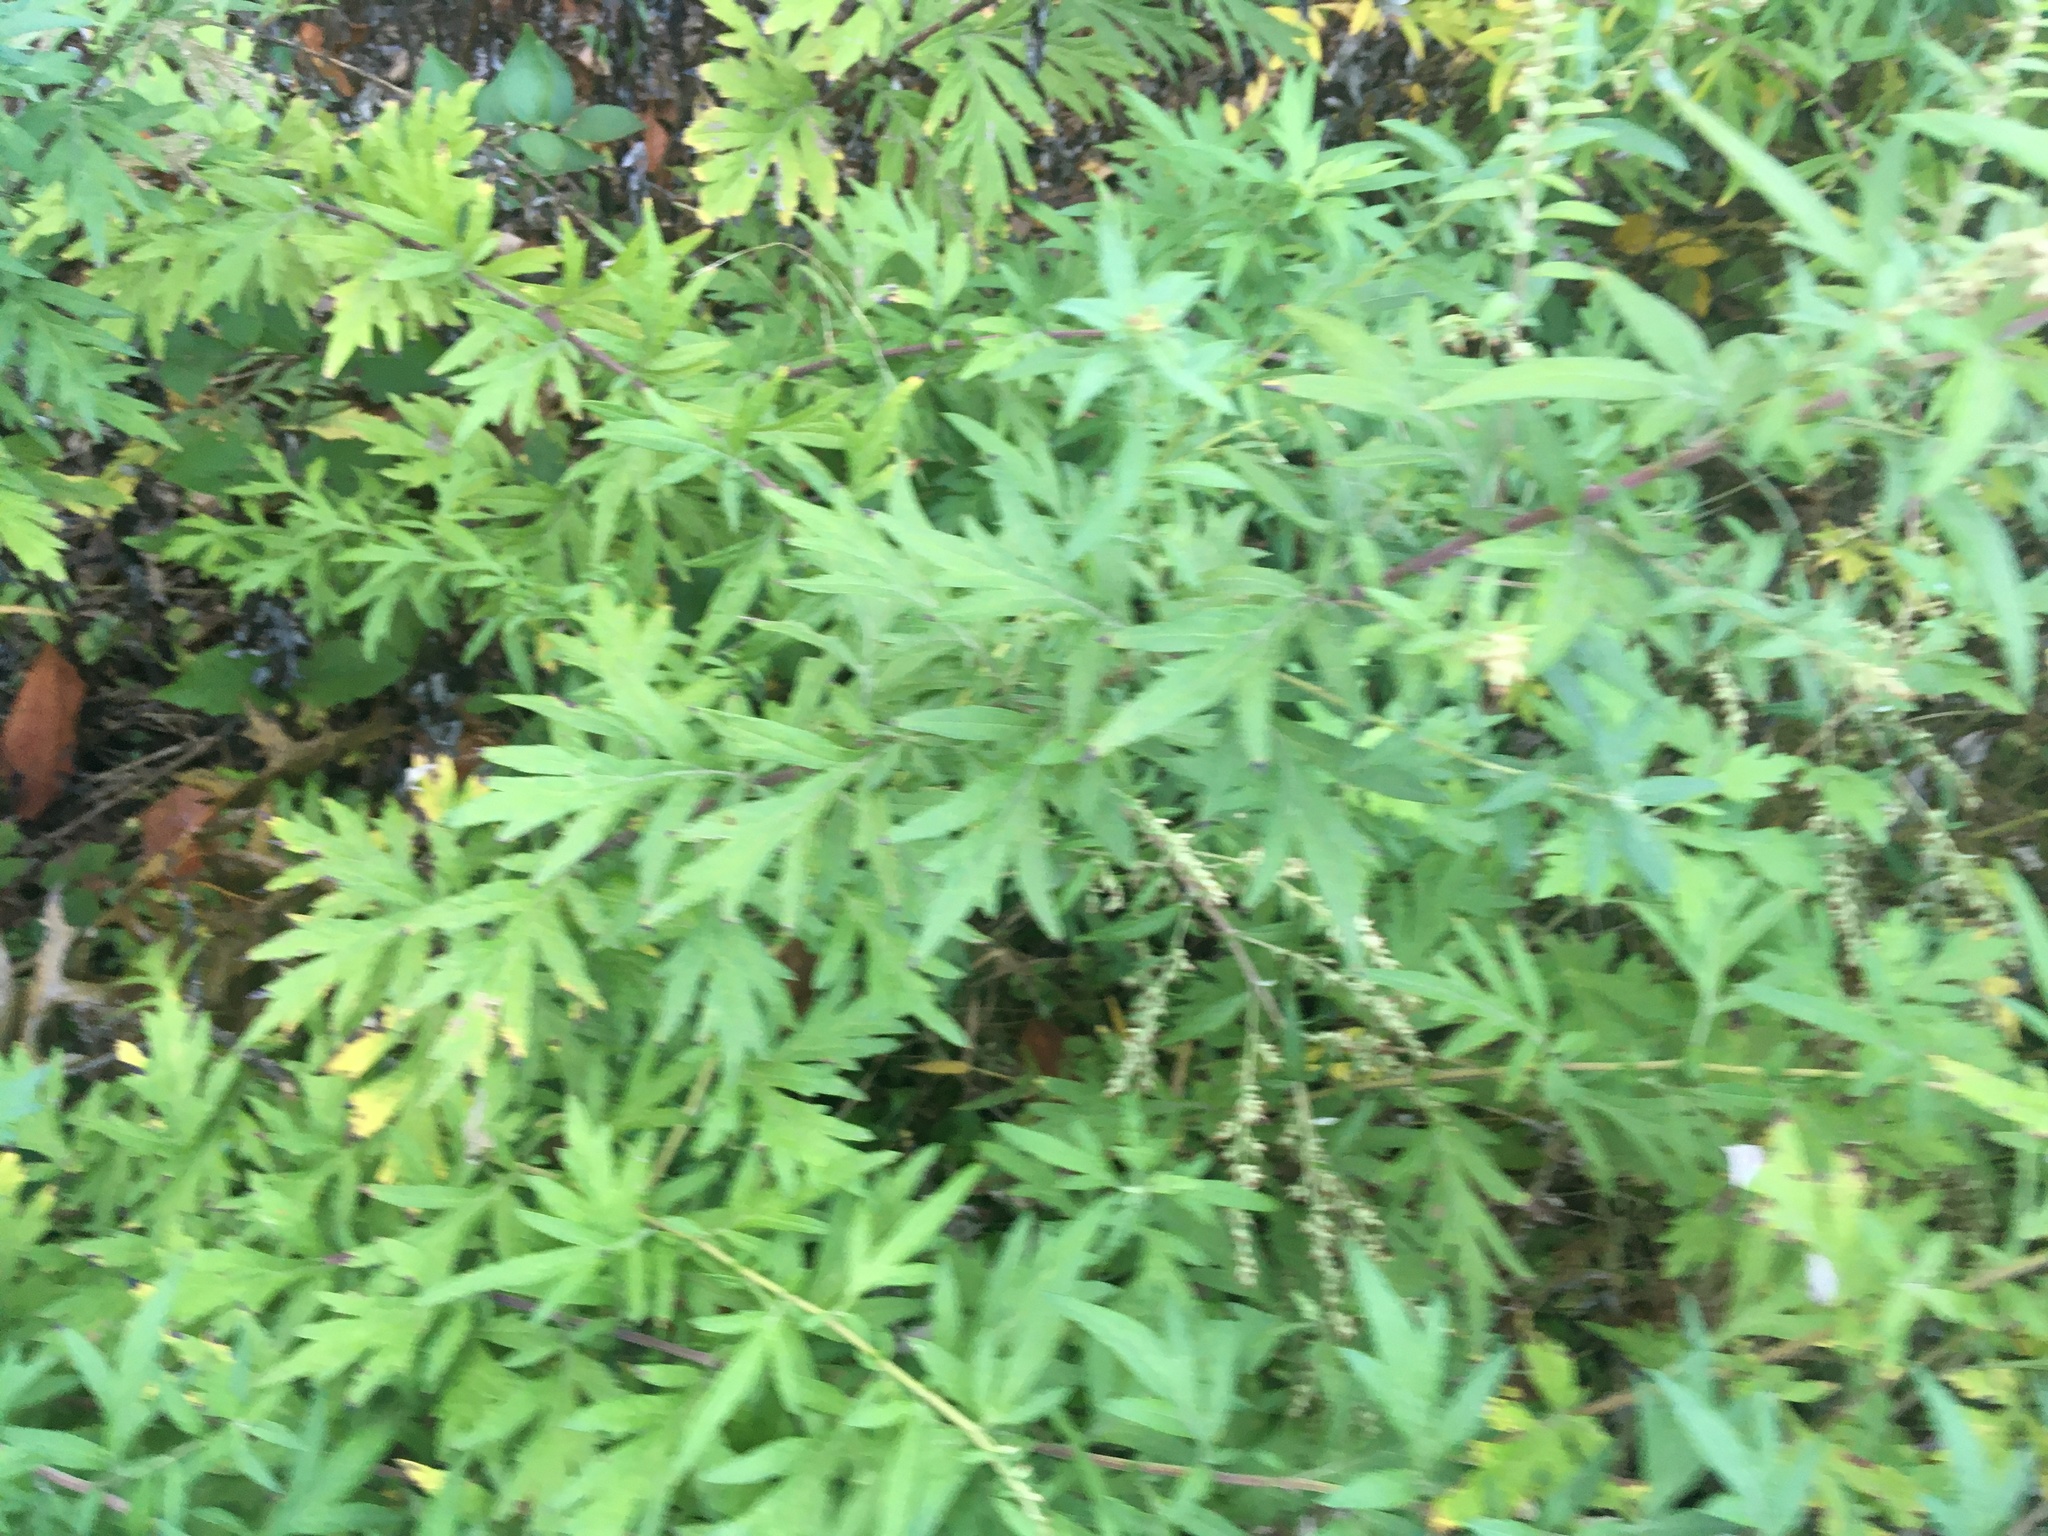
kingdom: Plantae
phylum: Tracheophyta
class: Magnoliopsida
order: Asterales
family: Asteraceae
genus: Artemisia
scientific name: Artemisia vulgaris
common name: Mugwort
